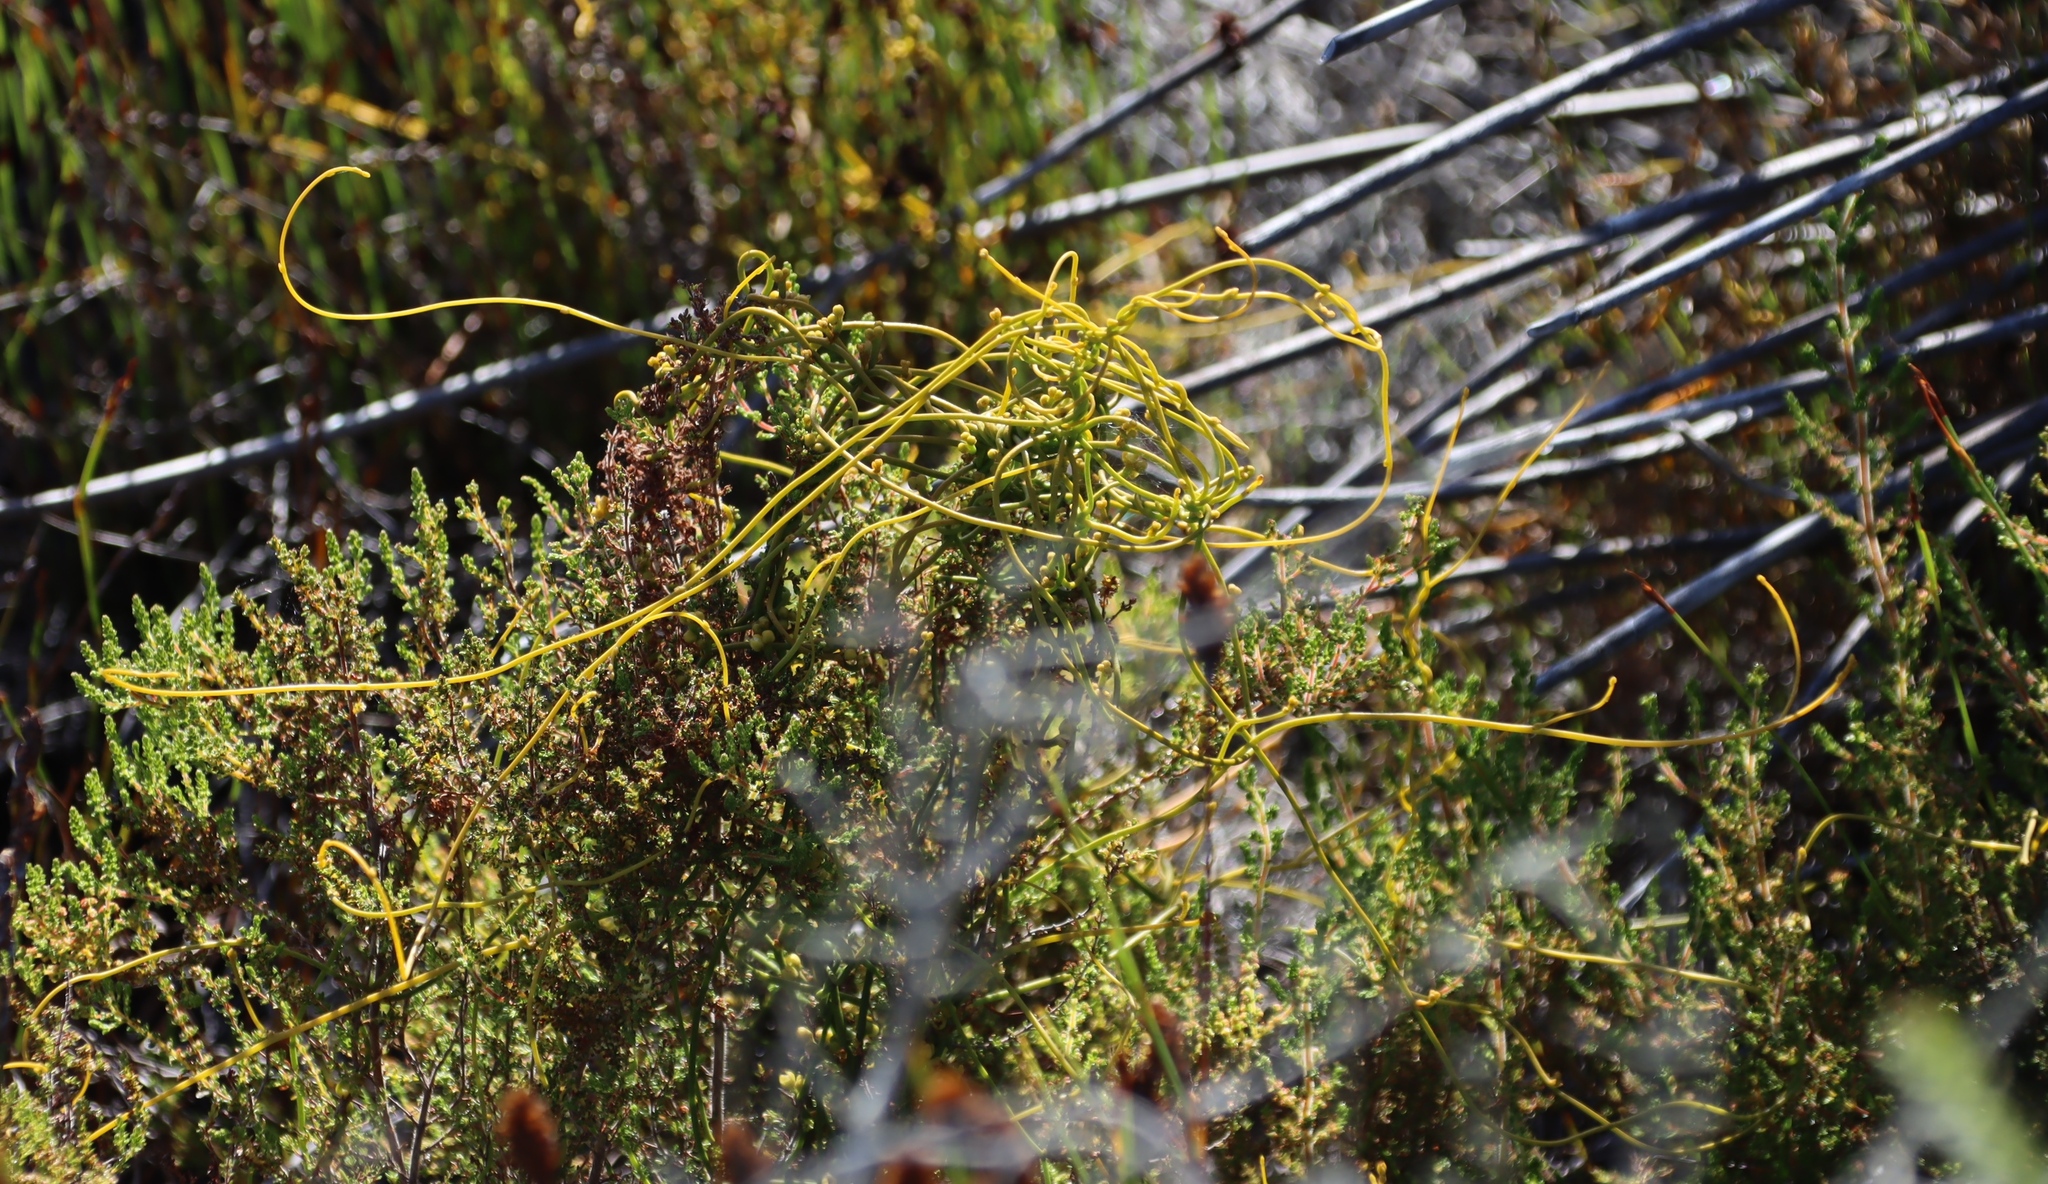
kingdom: Plantae
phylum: Tracheophyta
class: Magnoliopsida
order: Laurales
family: Lauraceae
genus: Cassytha
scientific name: Cassytha ciliolata
